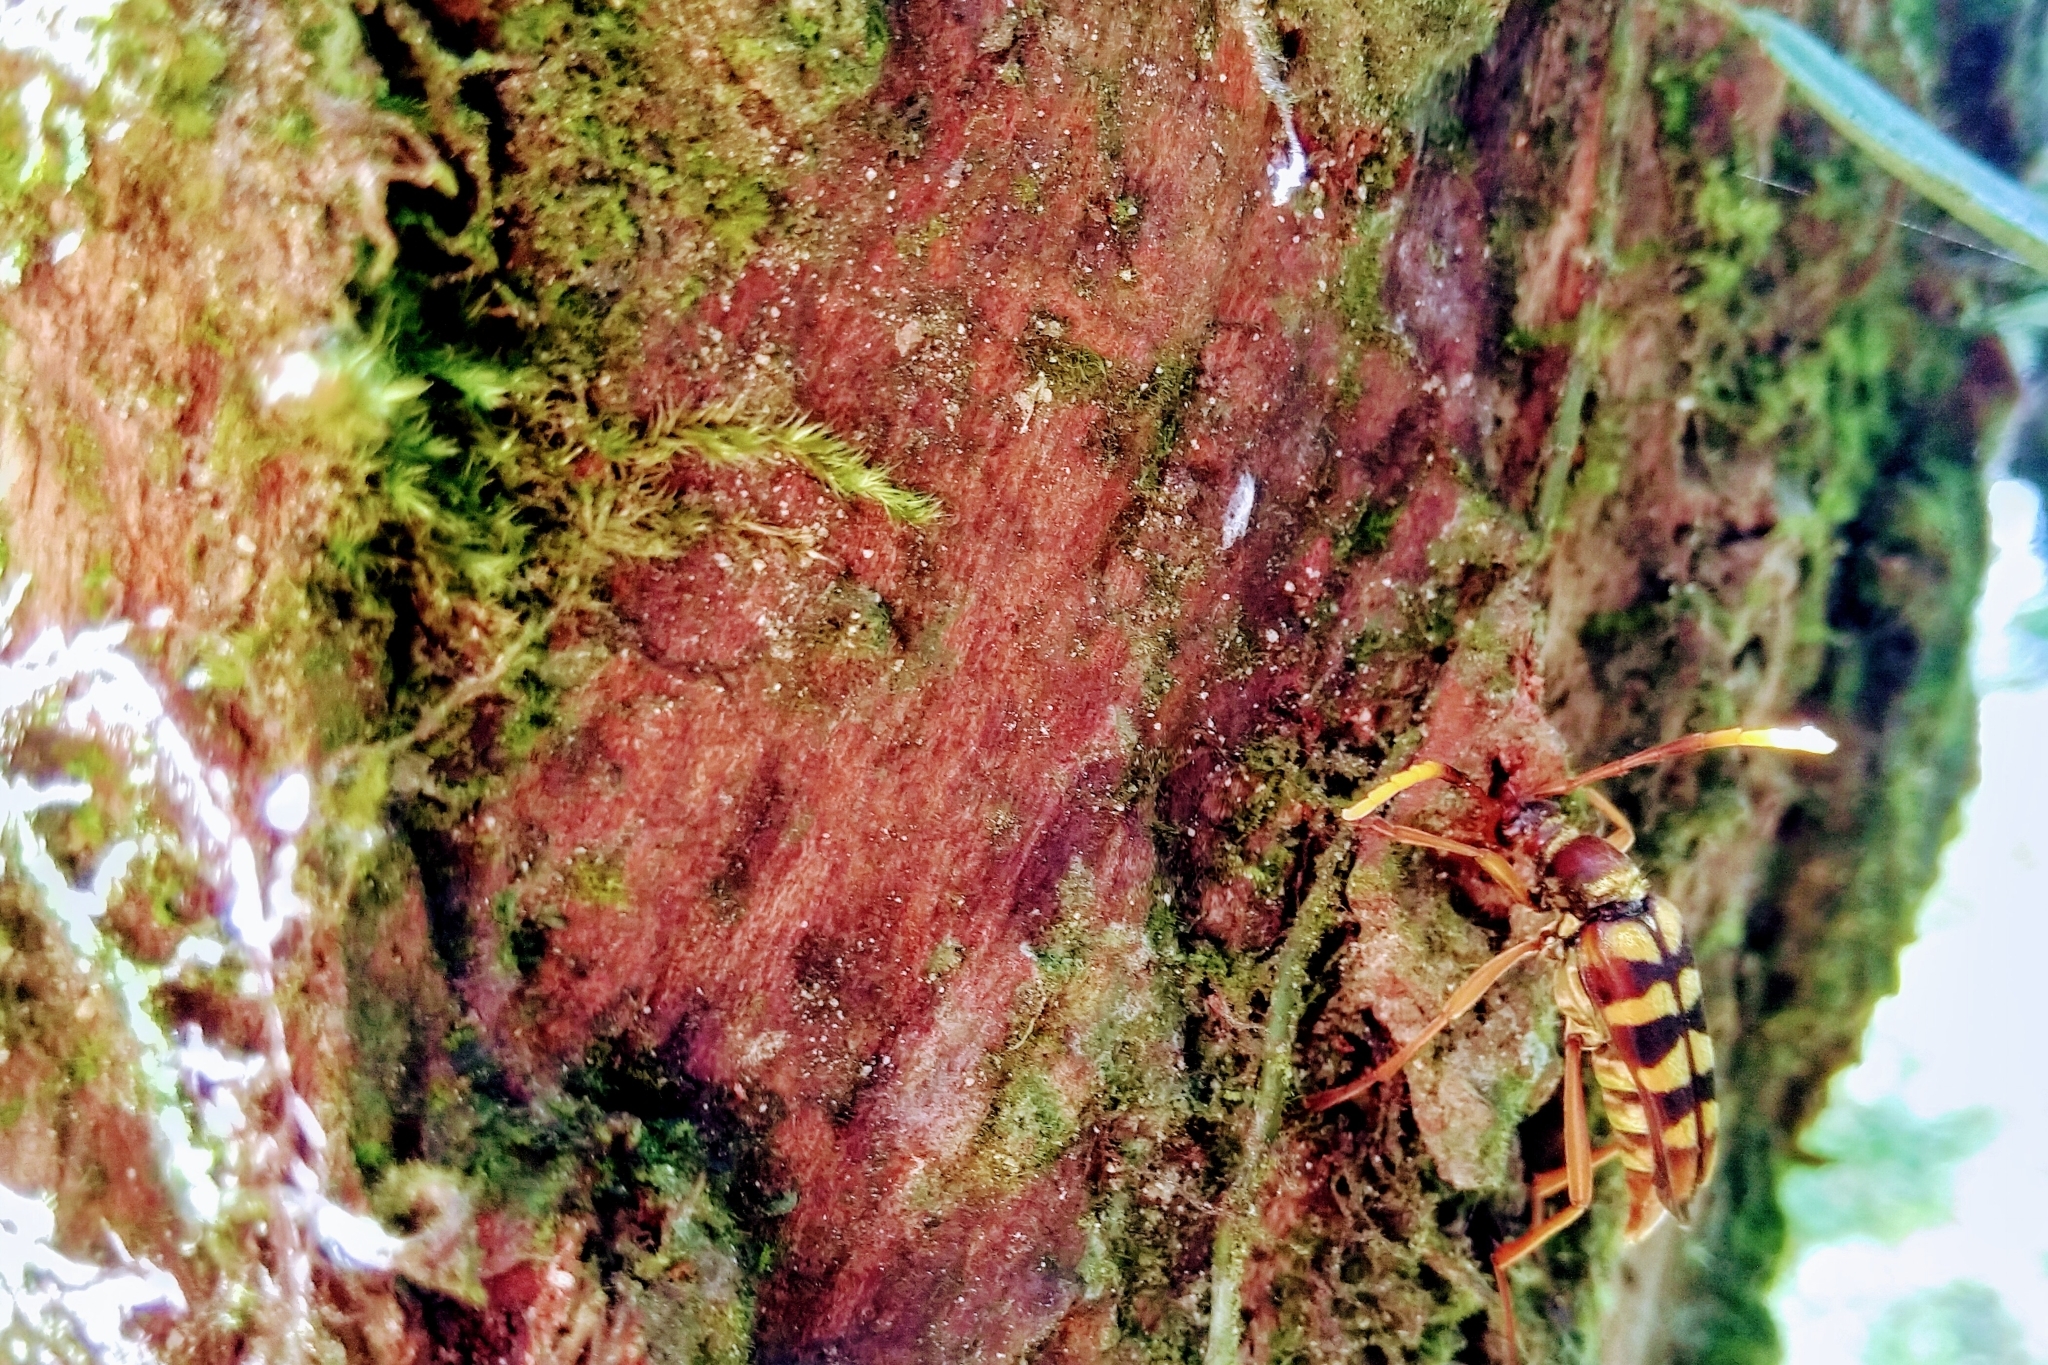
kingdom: Animalia
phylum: Arthropoda
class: Insecta
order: Coleoptera
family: Cerambycidae
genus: Leptura
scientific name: Leptura taranan
